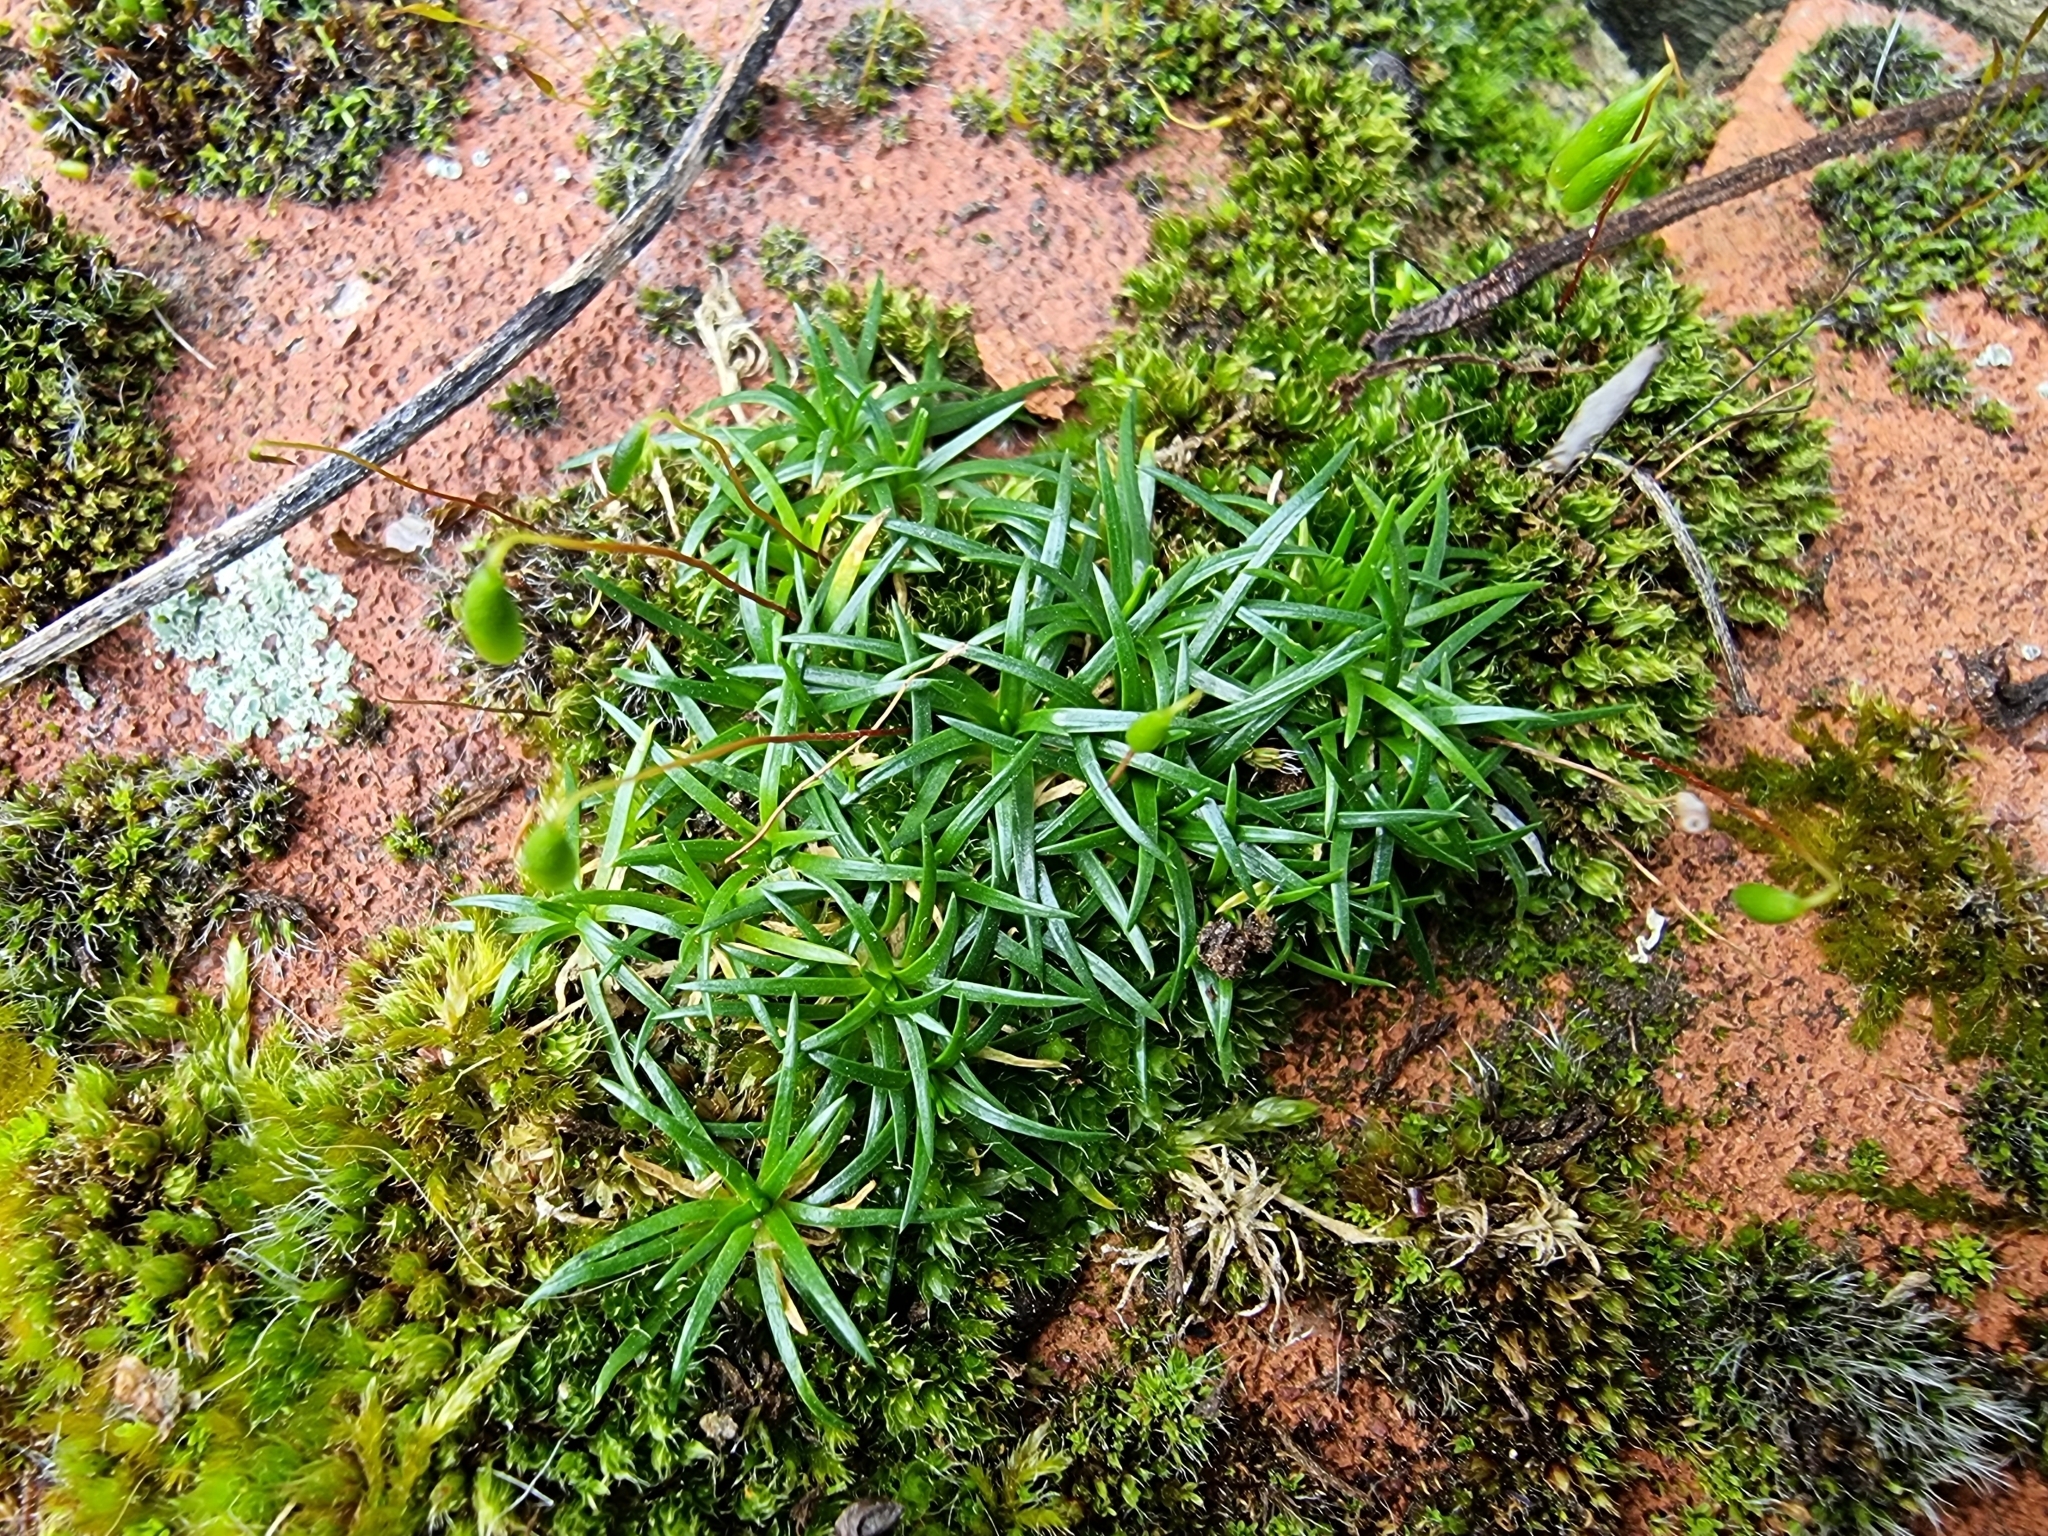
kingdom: Plantae
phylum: Tracheophyta
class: Magnoliopsida
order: Caryophyllales
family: Caryophyllaceae
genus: Sagina
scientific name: Sagina procumbens
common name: Procumbent pearlwort
